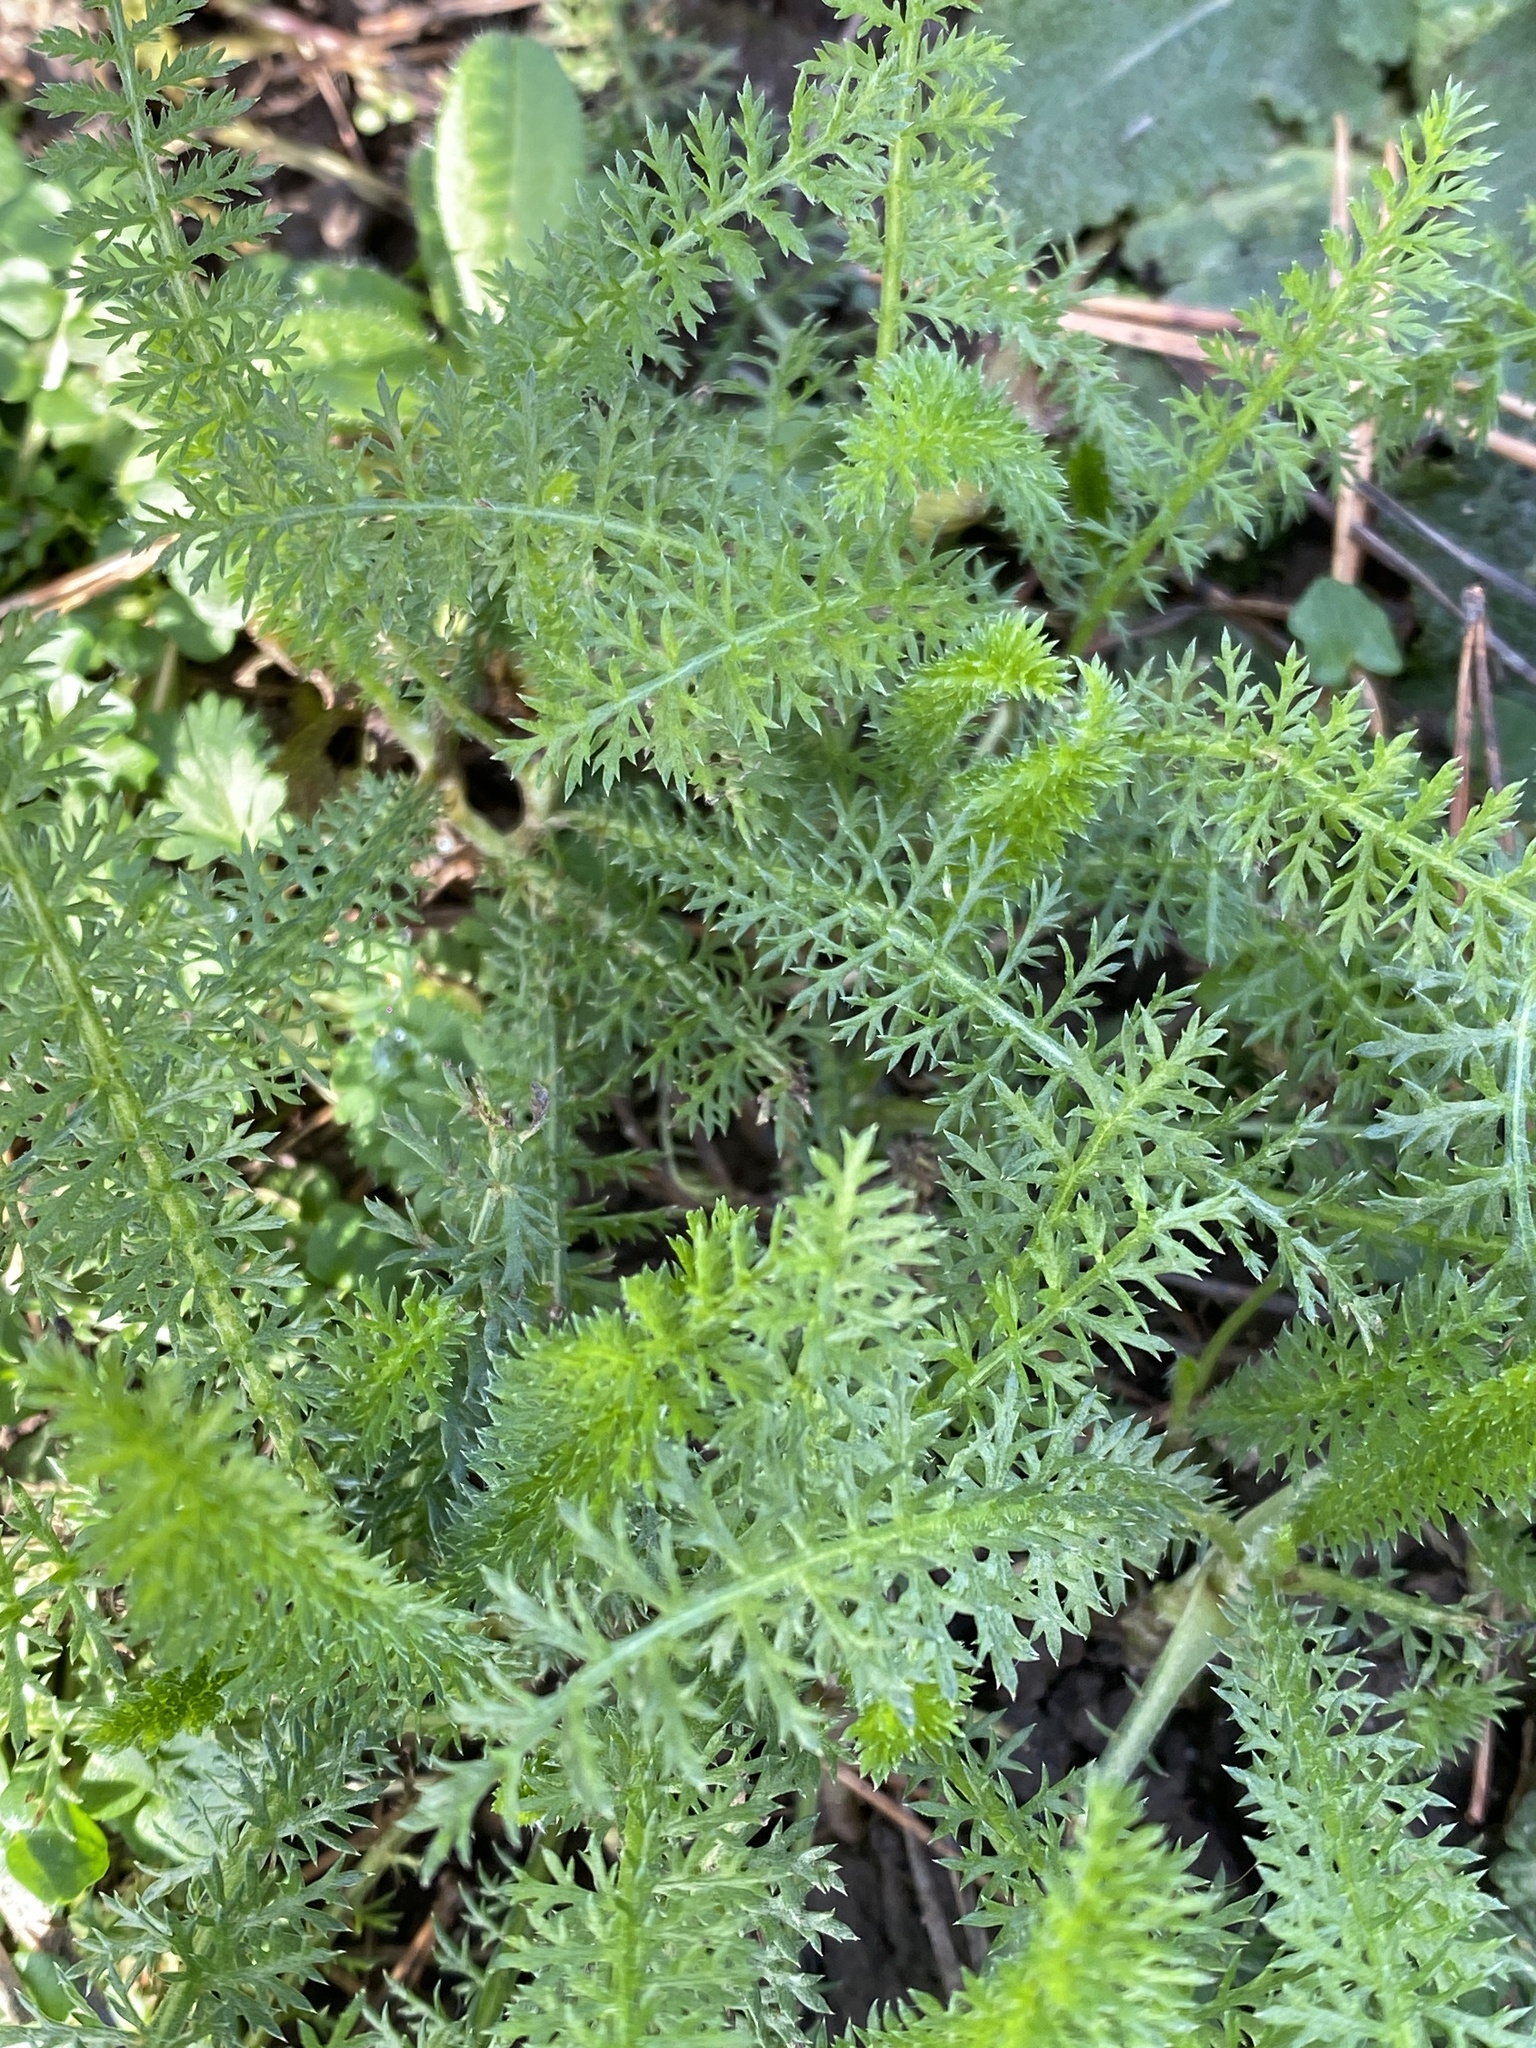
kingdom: Plantae
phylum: Tracheophyta
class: Magnoliopsida
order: Asterales
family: Asteraceae
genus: Achillea
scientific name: Achillea millefolium
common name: Yarrow
